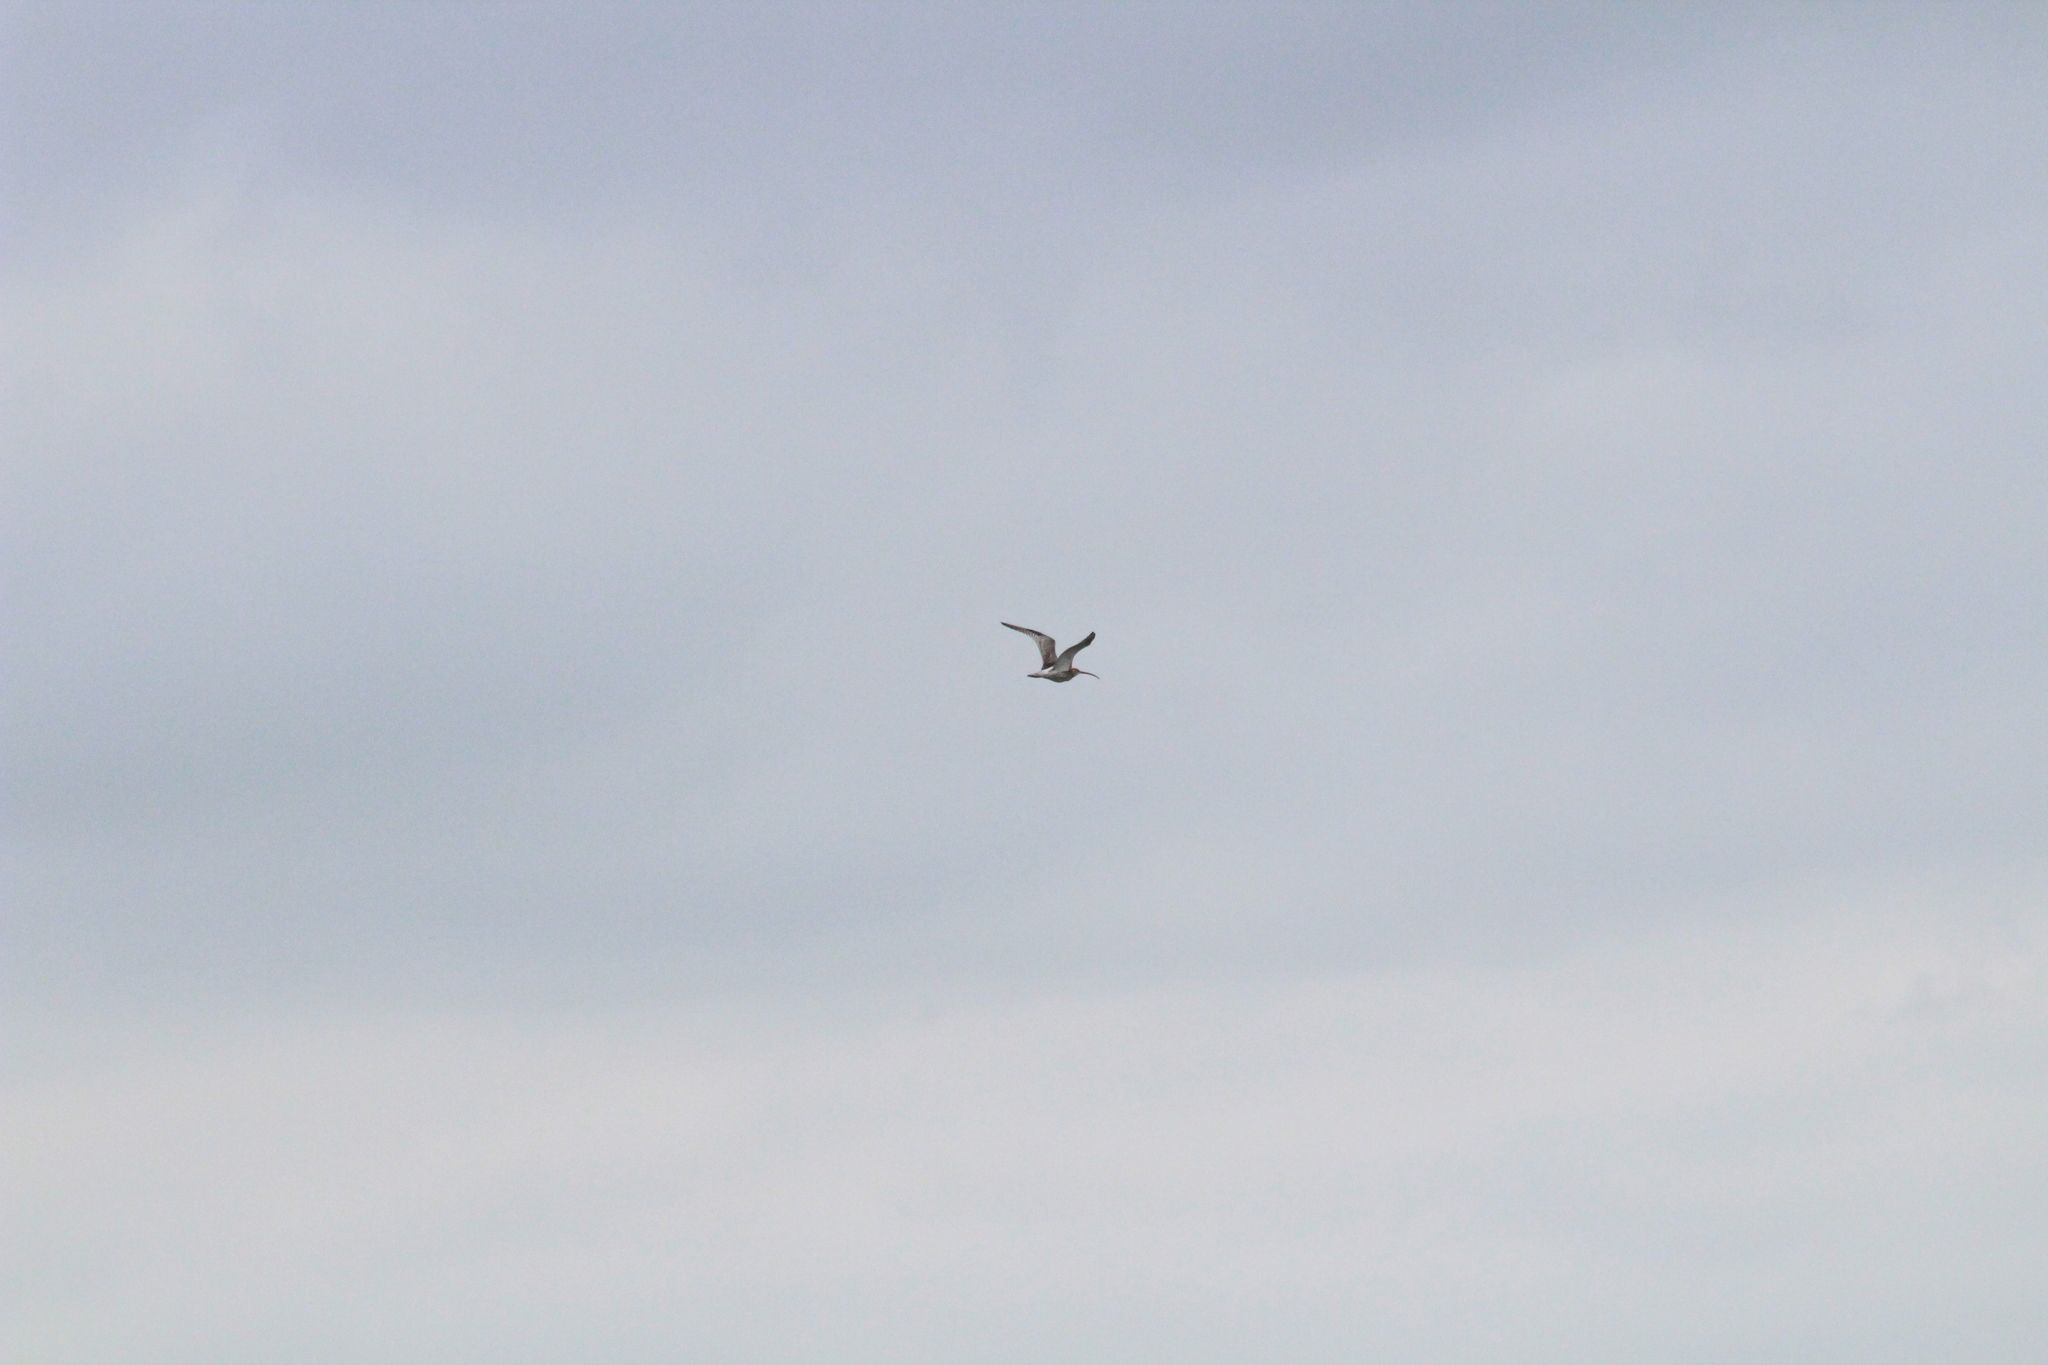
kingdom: Animalia
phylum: Chordata
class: Aves
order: Charadriiformes
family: Scolopacidae
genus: Numenius
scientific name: Numenius arquata
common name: Eurasian curlew
